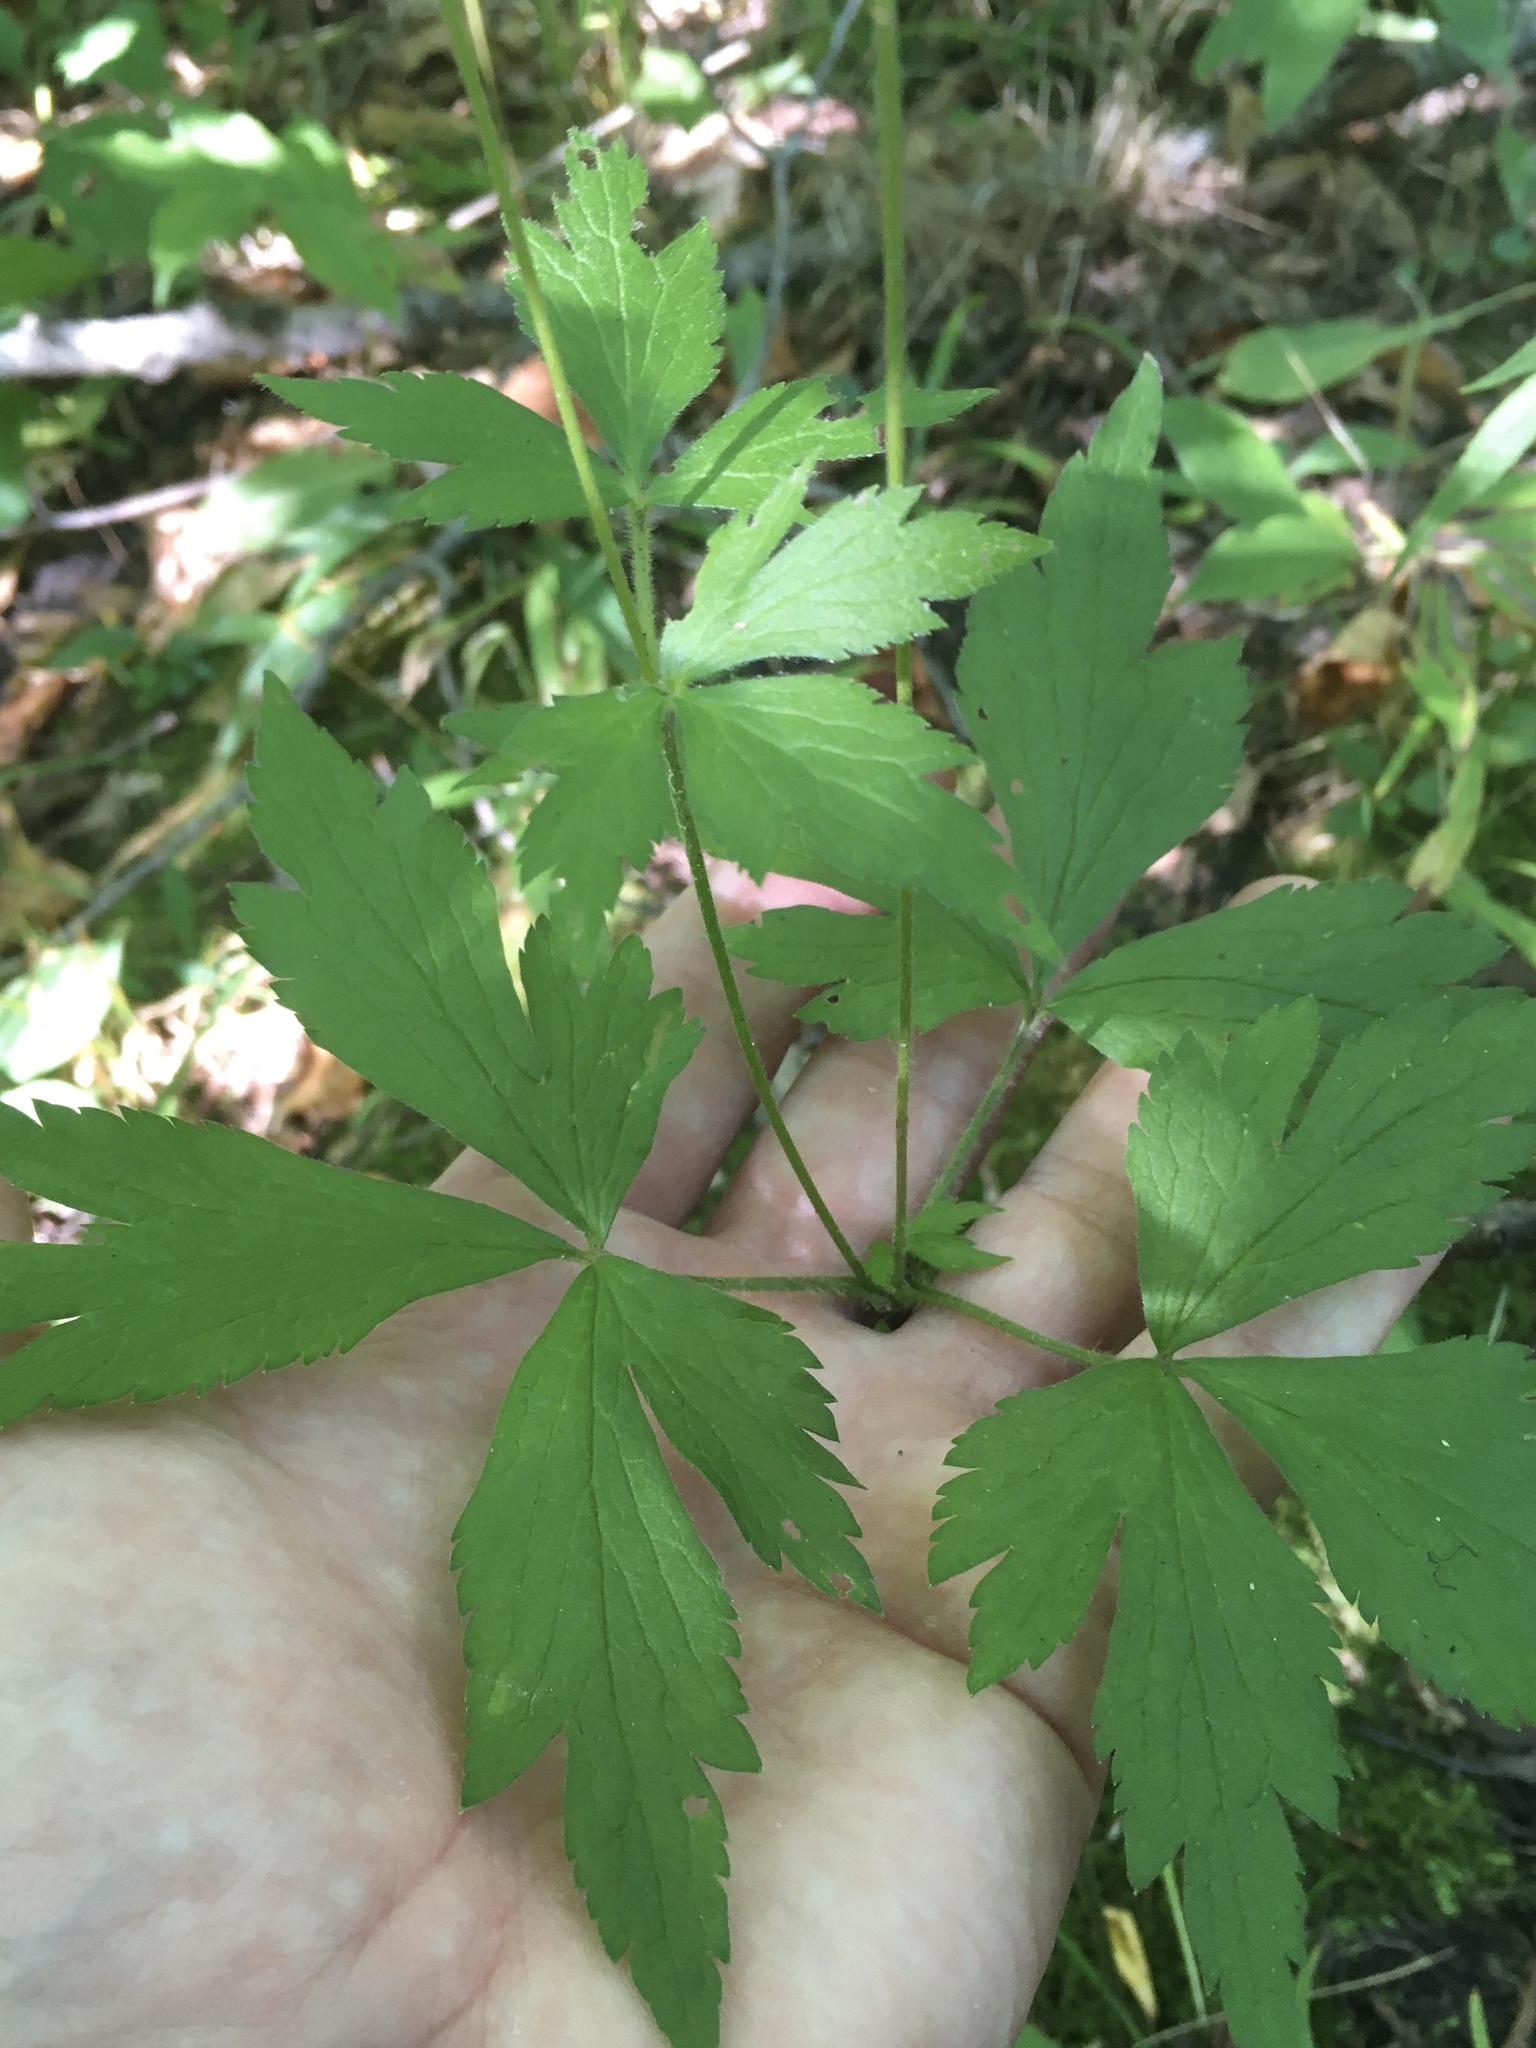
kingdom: Plantae
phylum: Tracheophyta
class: Magnoliopsida
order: Ranunculales
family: Ranunculaceae
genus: Anemone
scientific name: Anemone virginiana
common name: Tall anemone
